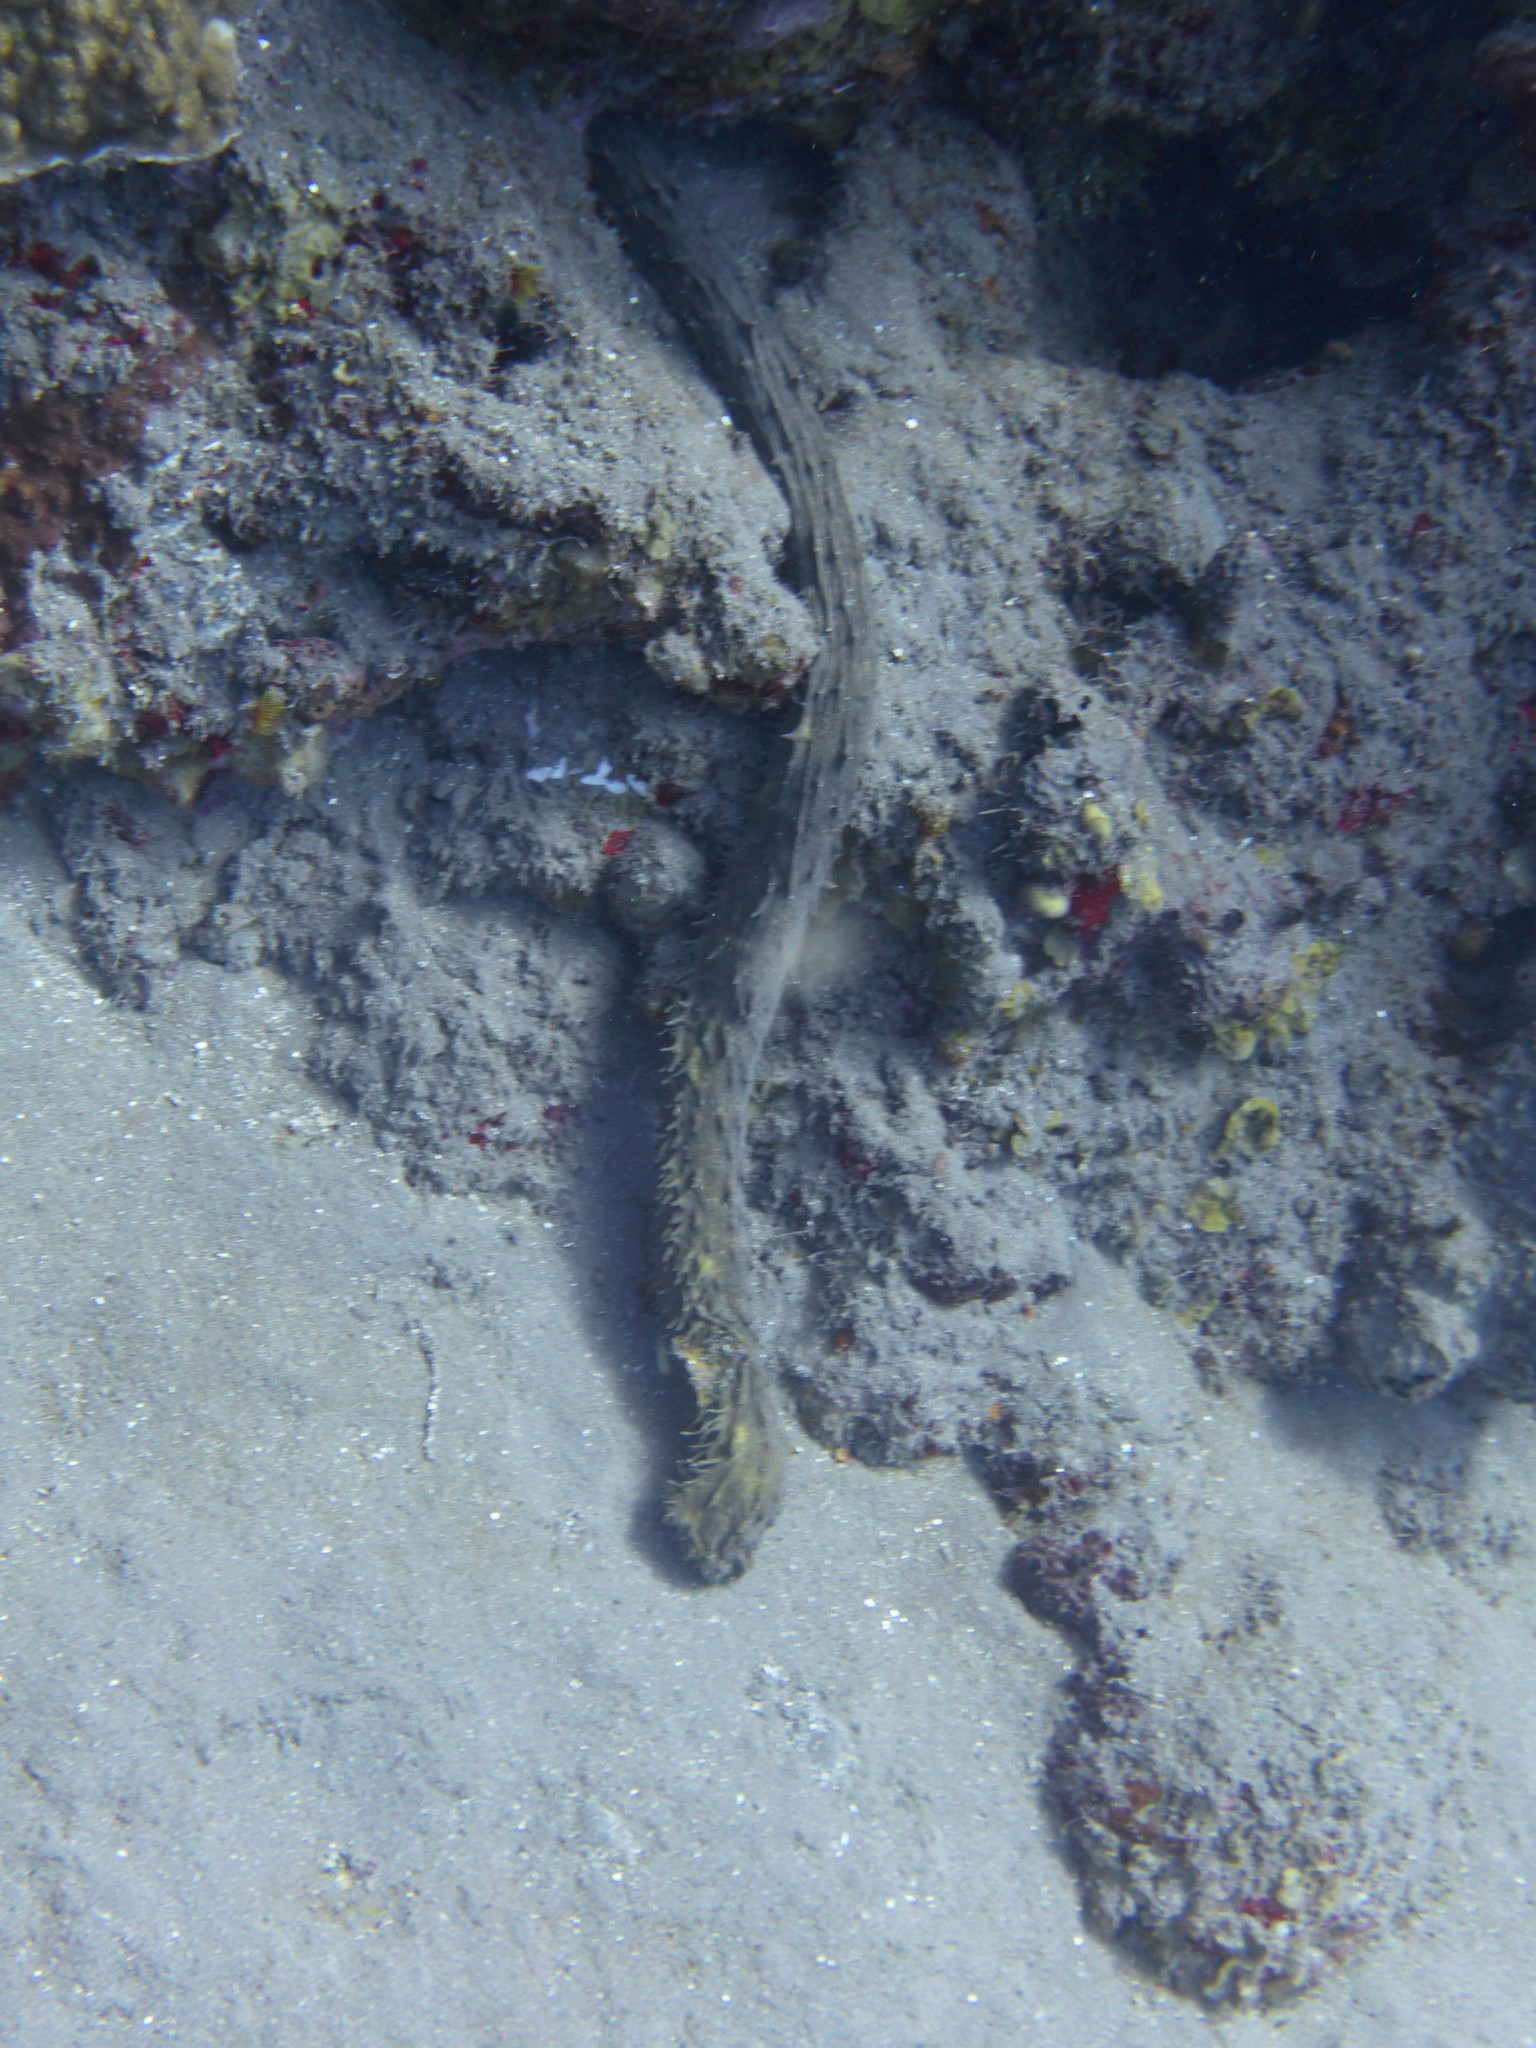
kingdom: Animalia
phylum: Echinodermata
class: Holothuroidea
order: Holothuriida
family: Holothuriidae
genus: Holothuria
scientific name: Holothuria thomasi
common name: Tiger tail sea cocumber
